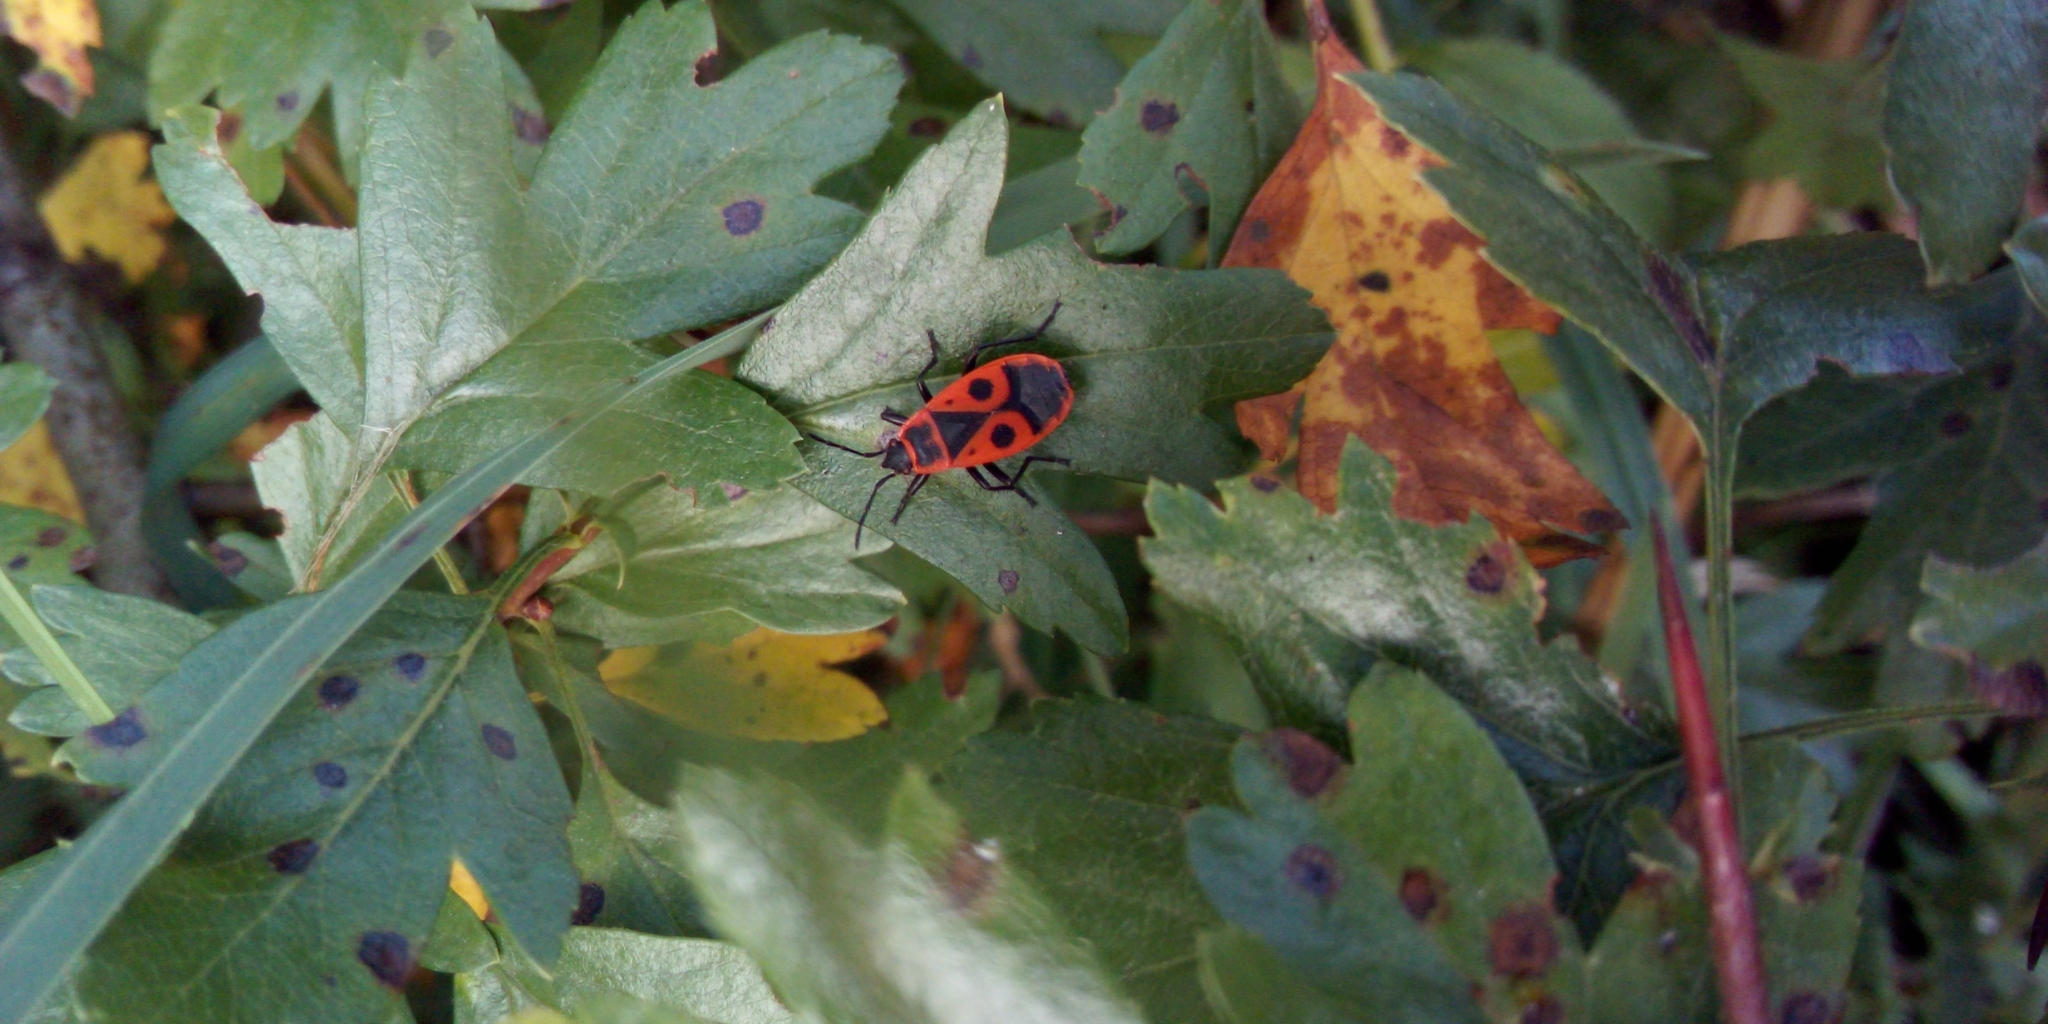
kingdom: Animalia
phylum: Arthropoda
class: Insecta
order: Hemiptera
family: Pyrrhocoridae
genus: Pyrrhocoris
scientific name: Pyrrhocoris apterus
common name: Firebug
